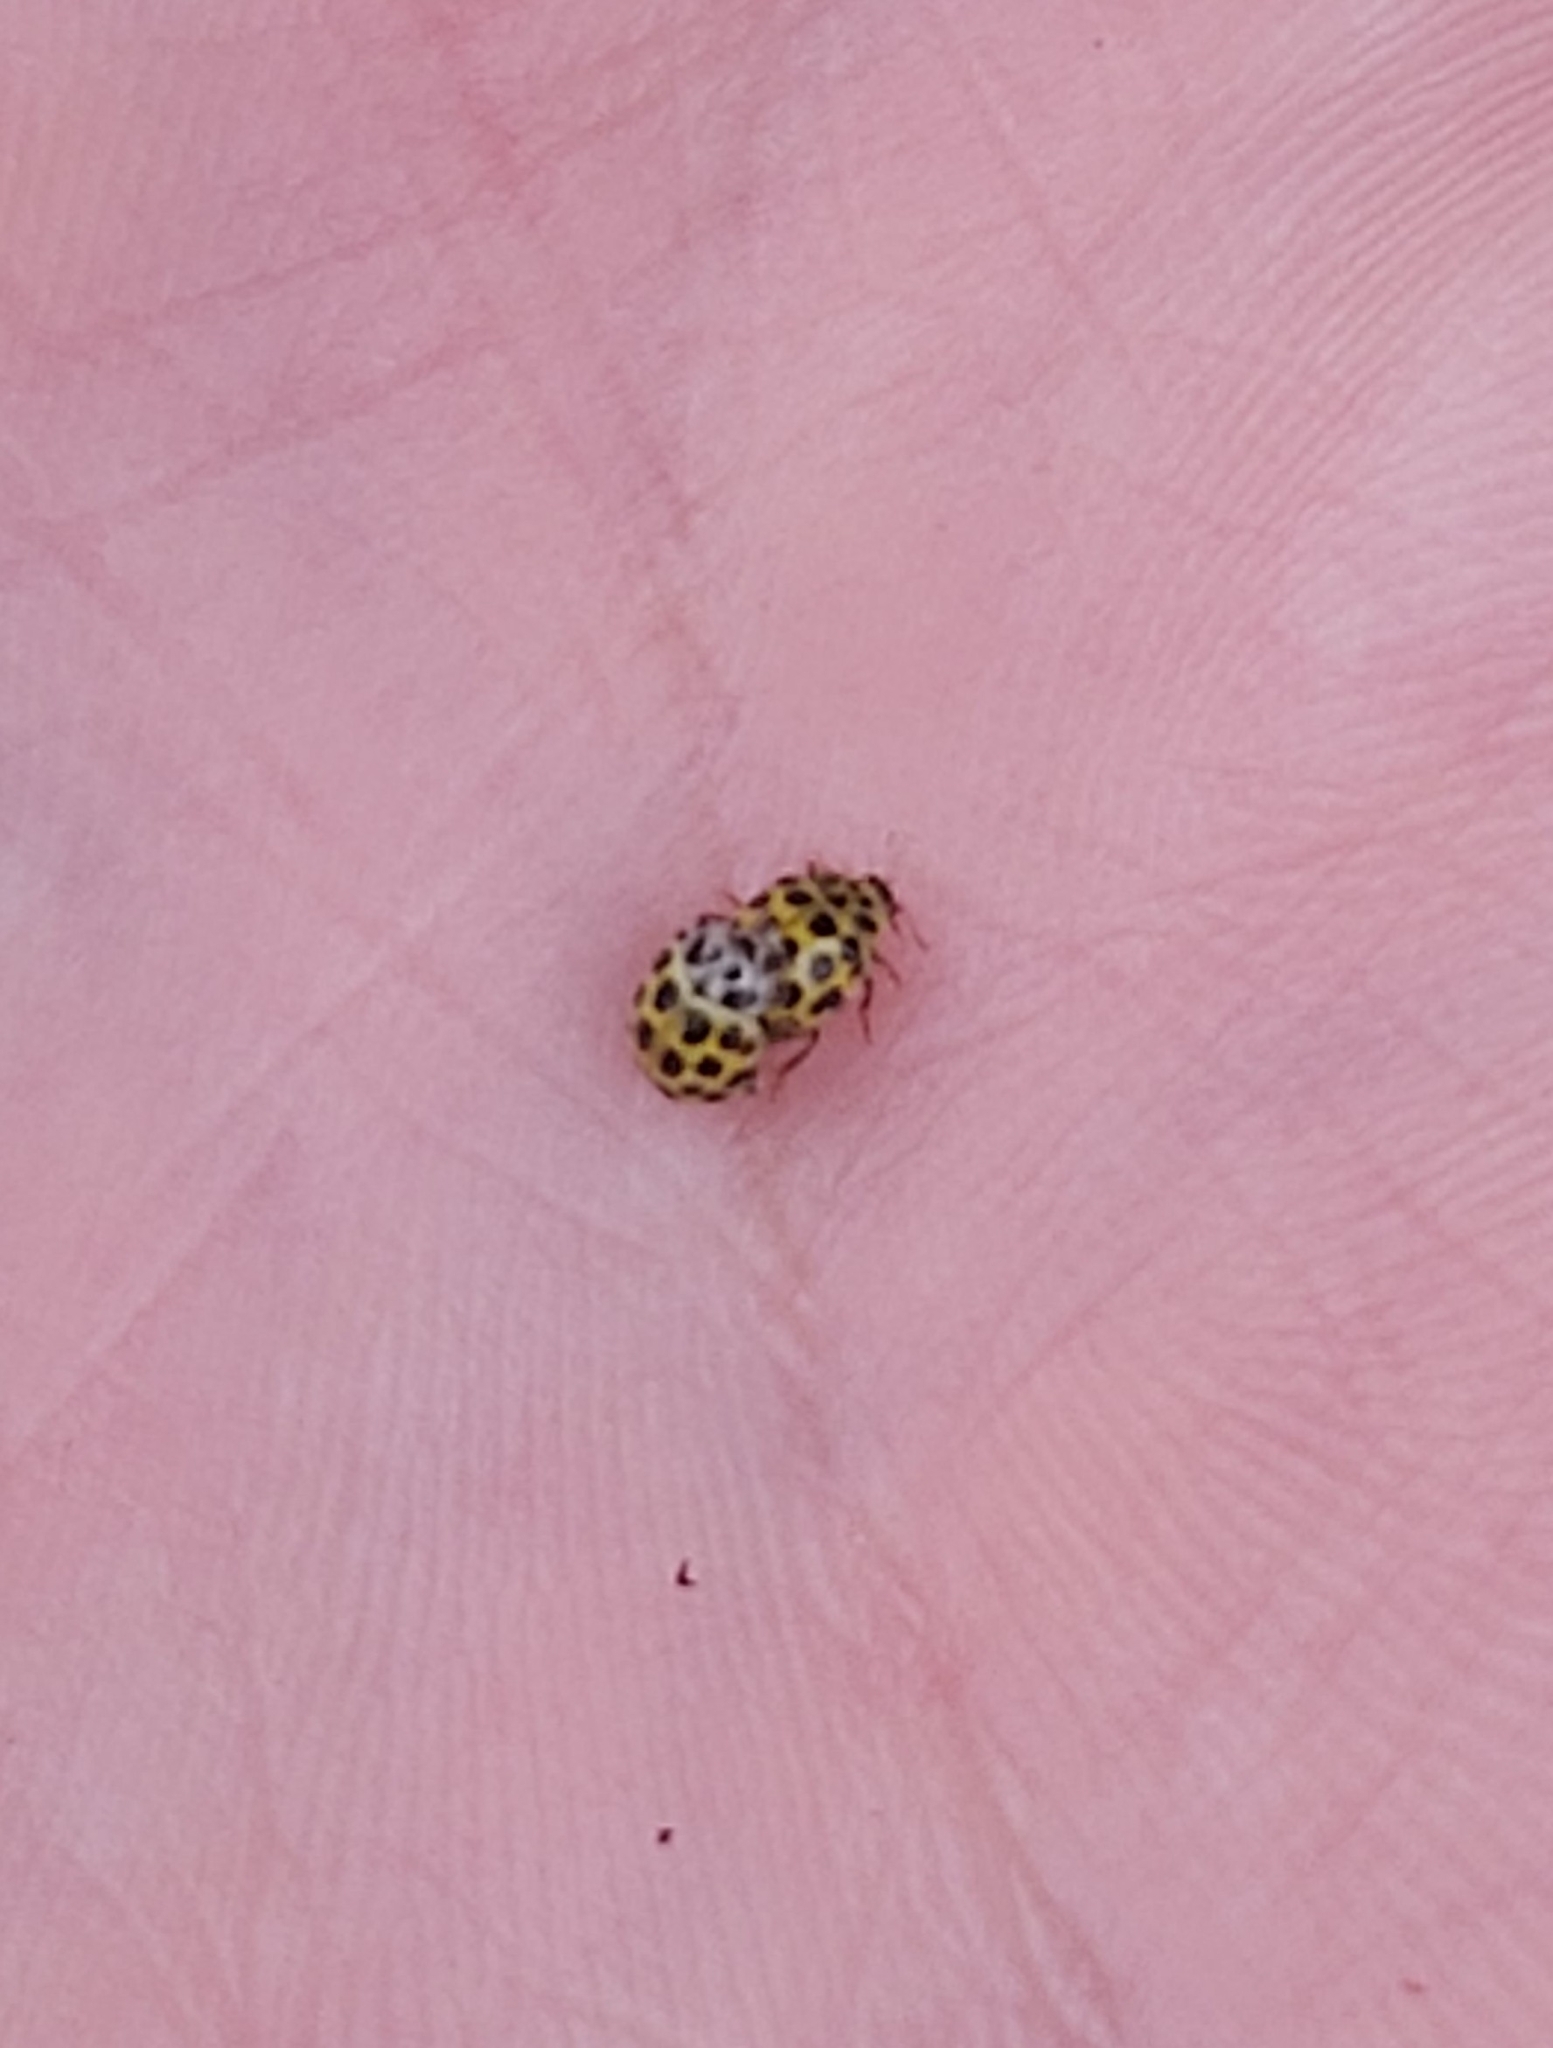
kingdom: Animalia
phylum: Arthropoda
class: Insecta
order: Coleoptera
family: Coccinellidae
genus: Psyllobora
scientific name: Psyllobora vigintiduopunctata
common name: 22-spot ladybird
